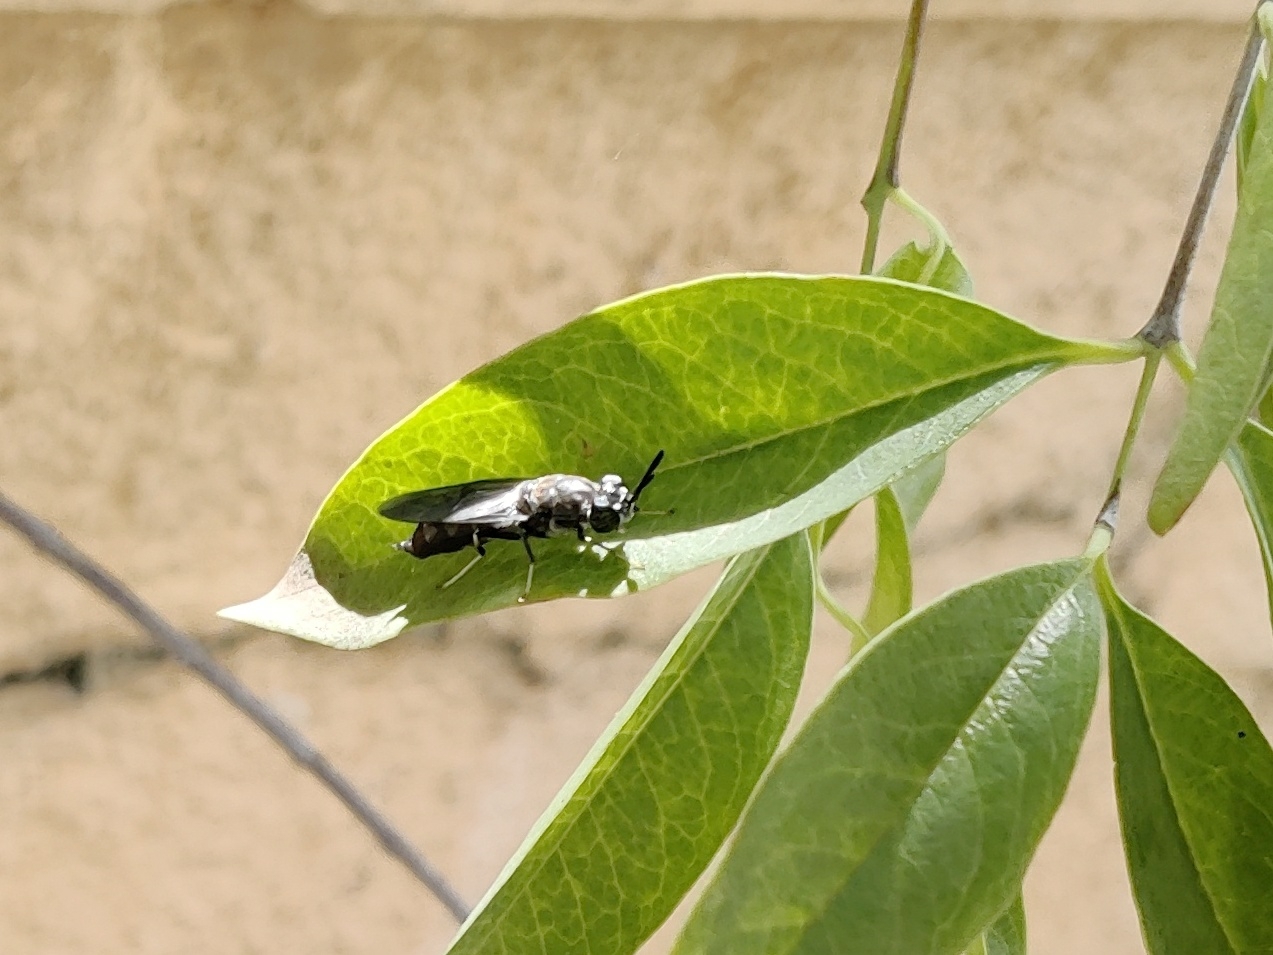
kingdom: Animalia
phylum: Arthropoda
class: Insecta
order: Diptera
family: Stratiomyidae
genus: Hermetia
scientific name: Hermetia illucens
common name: Black soldier fly
